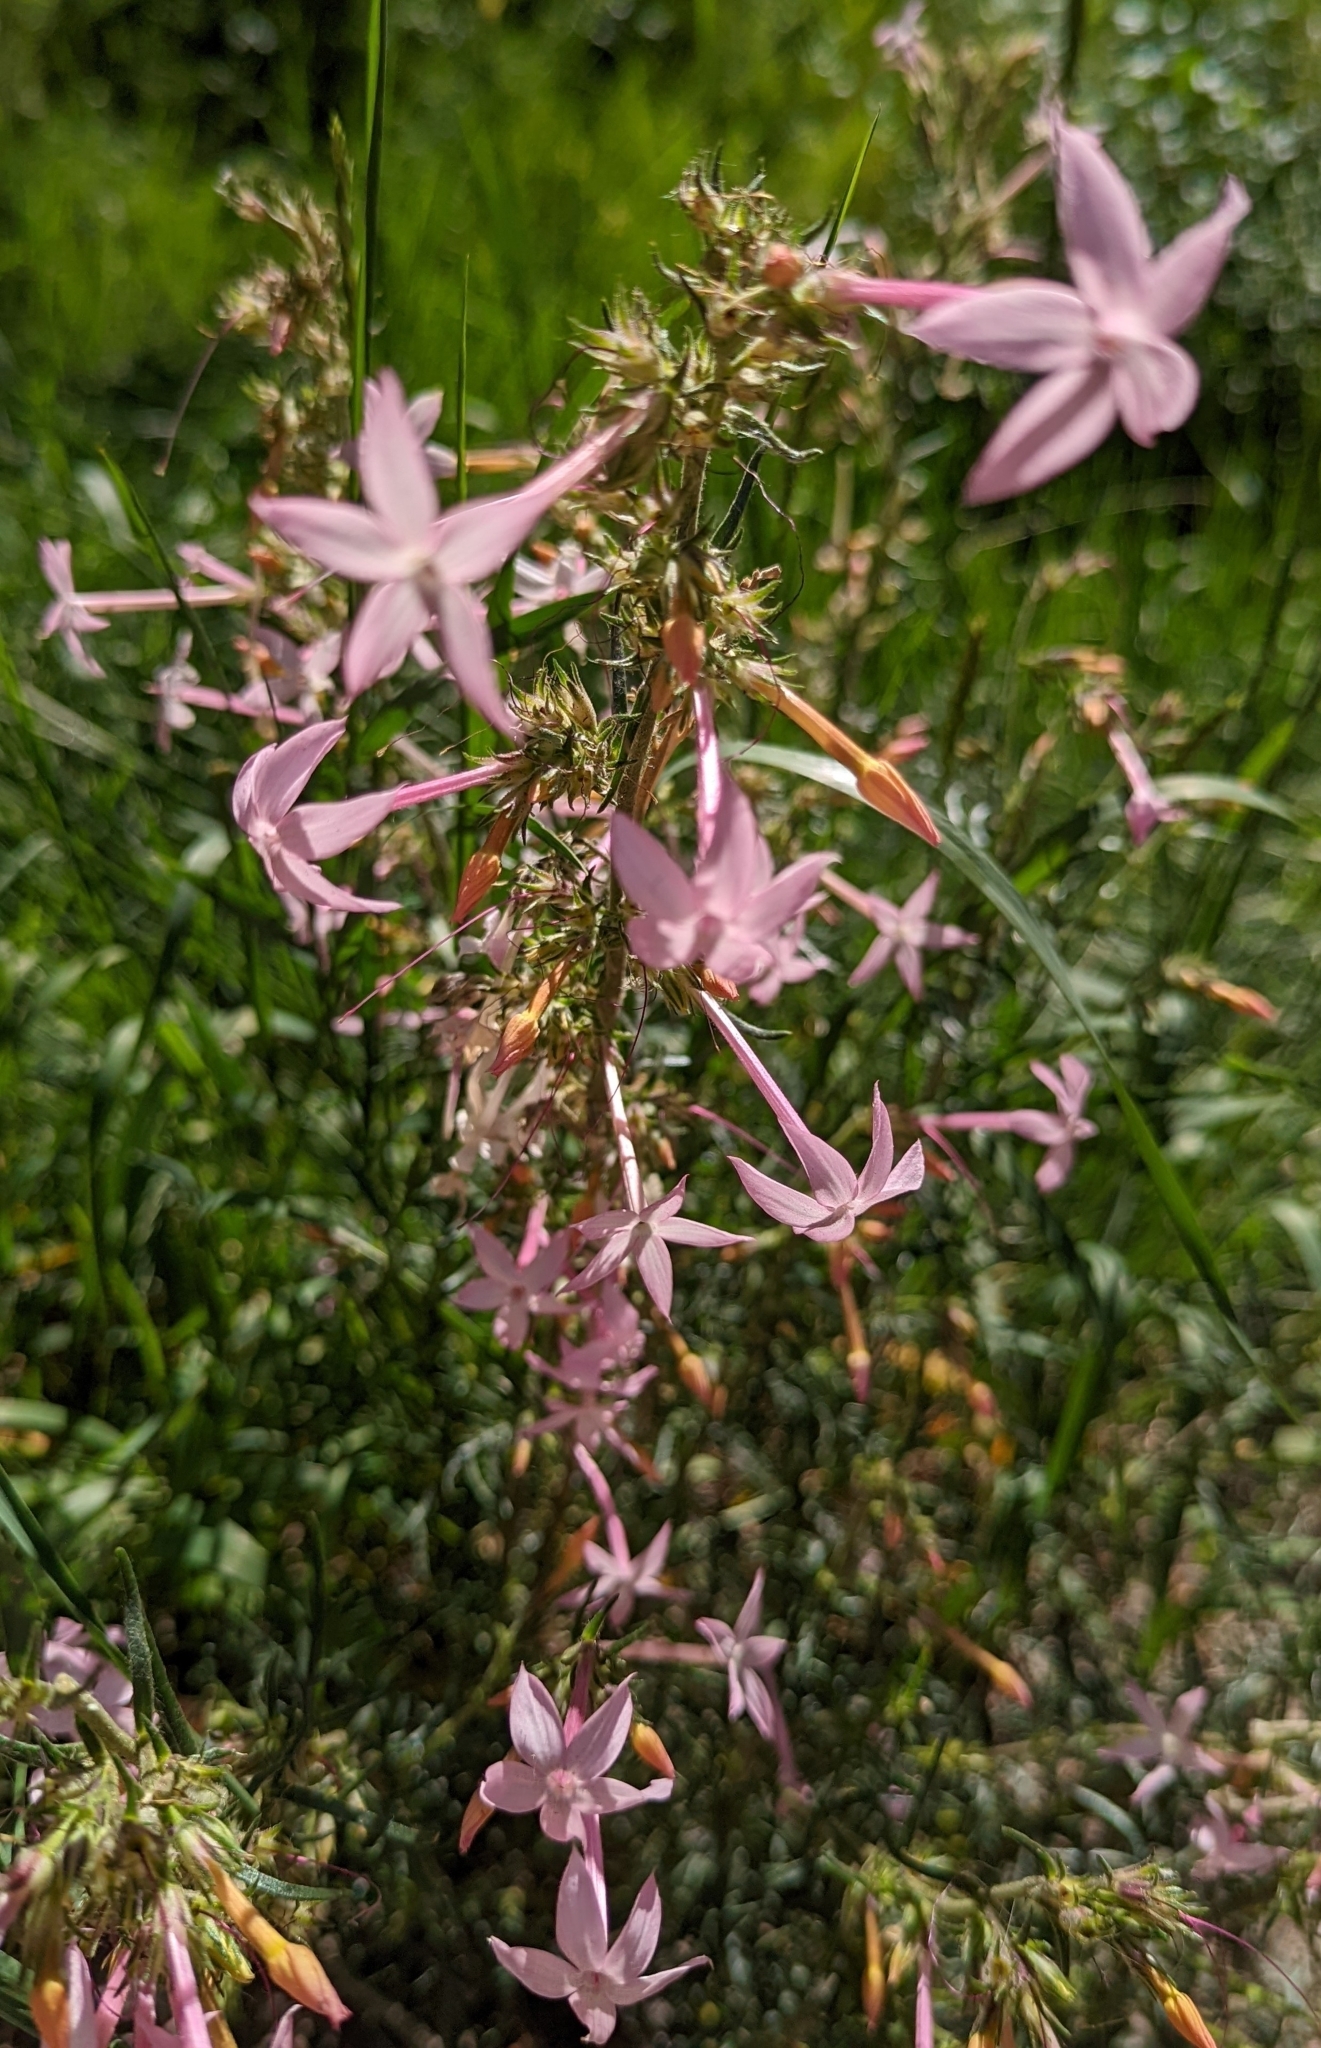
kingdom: Plantae
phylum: Tracheophyta
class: Magnoliopsida
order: Ericales
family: Polemoniaceae
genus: Ipomopsis
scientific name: Ipomopsis tenuituba
